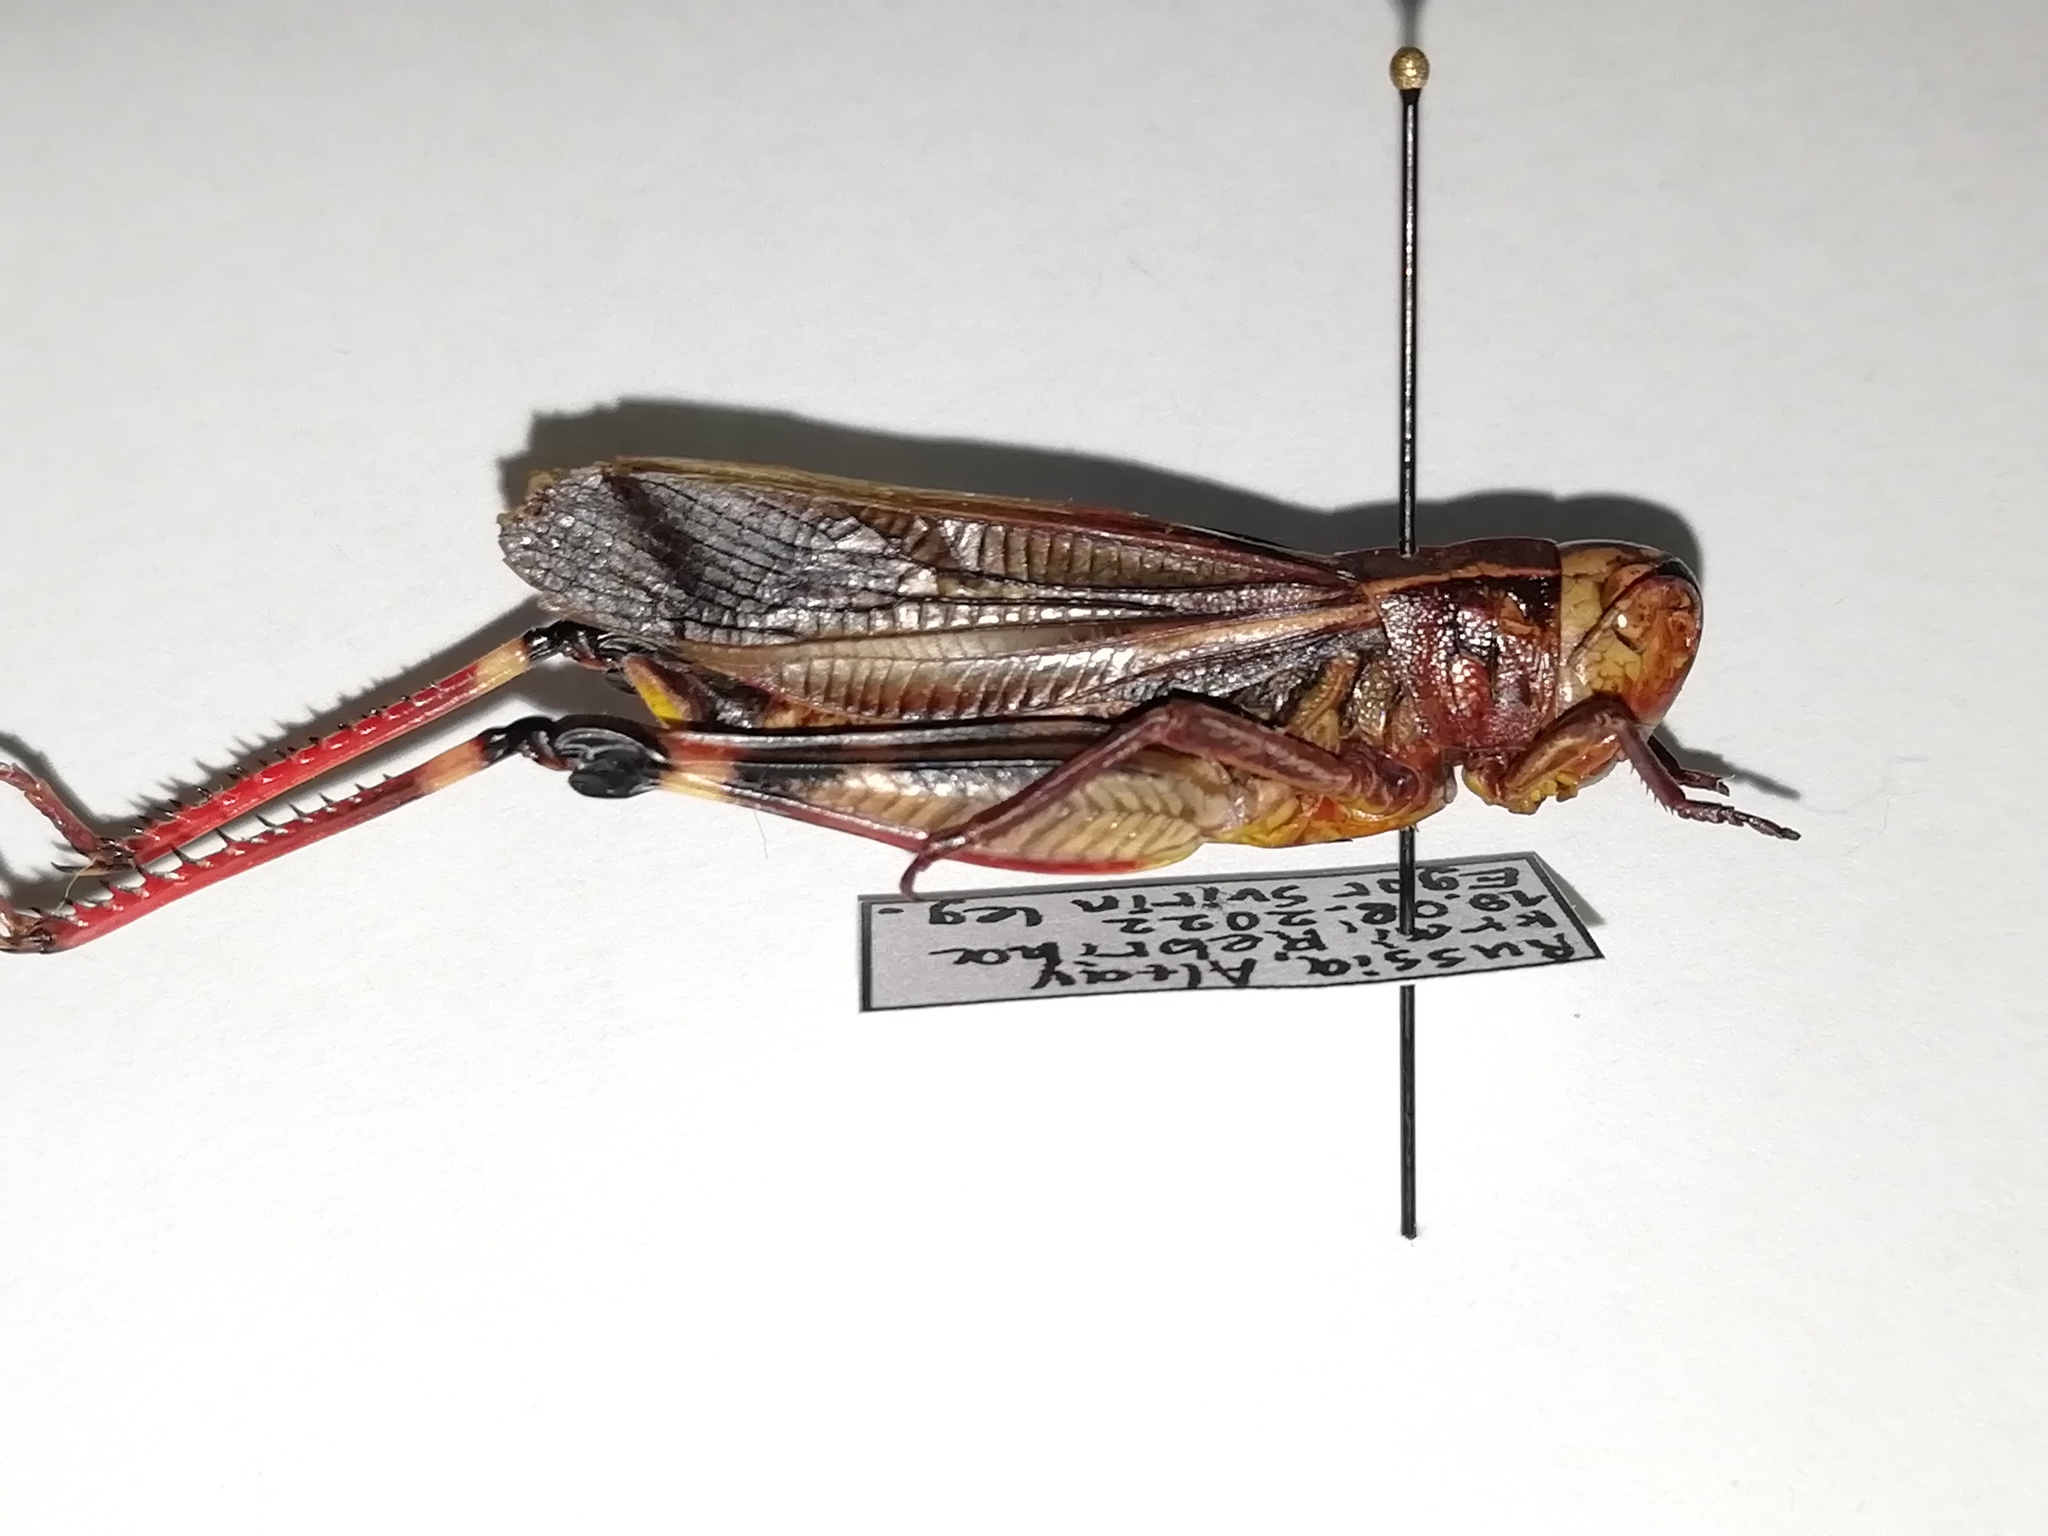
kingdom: Animalia
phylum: Arthropoda
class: Insecta
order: Orthoptera
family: Acrididae
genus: Arcyptera
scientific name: Arcyptera fusca
